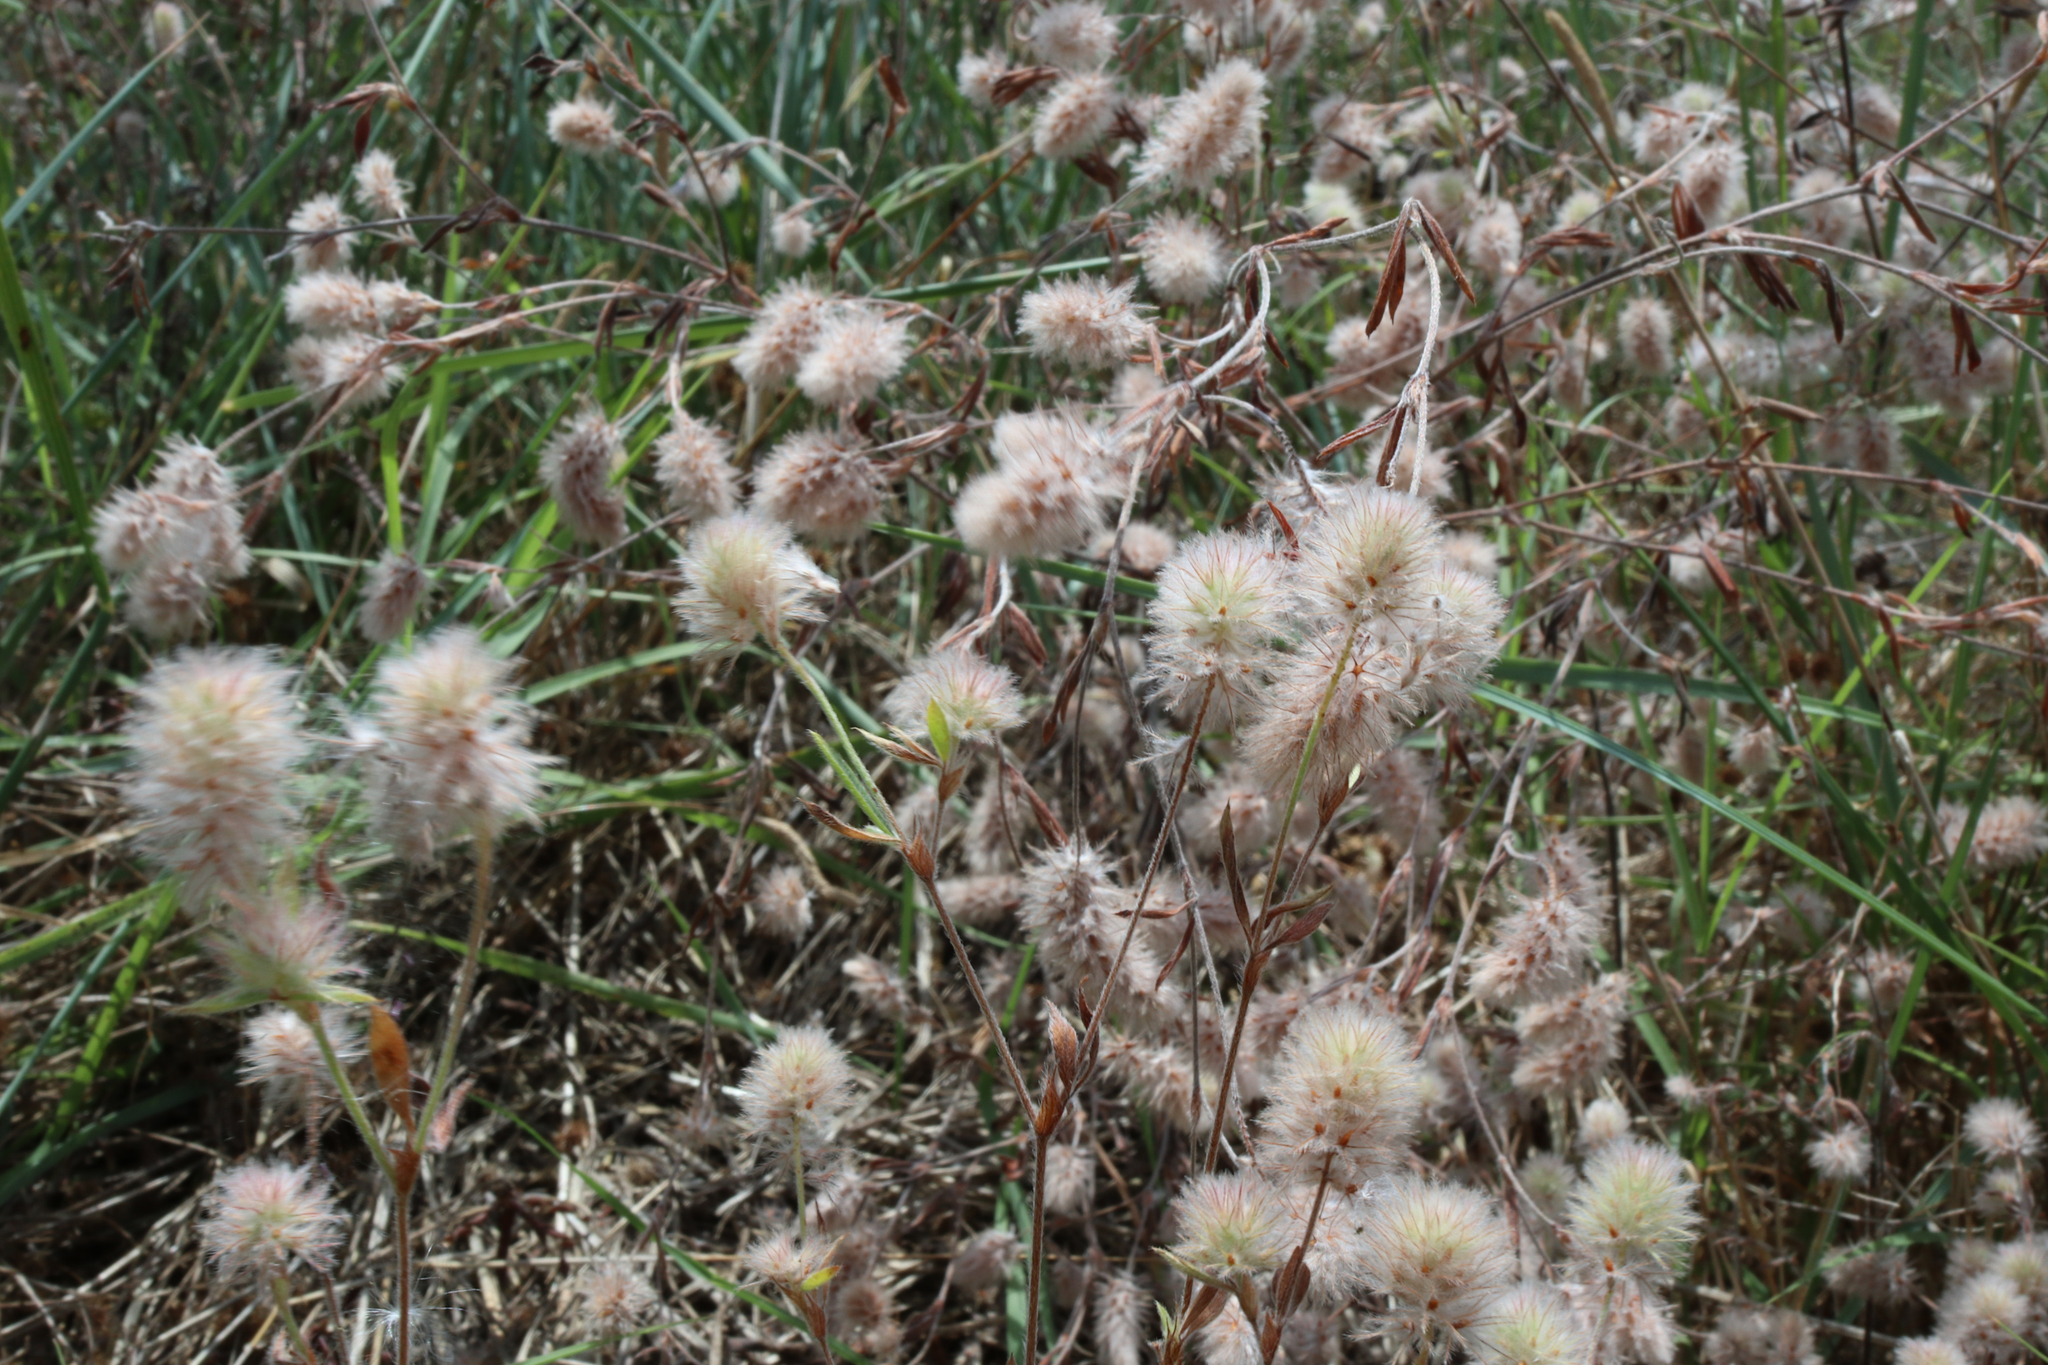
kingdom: Plantae
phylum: Tracheophyta
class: Magnoliopsida
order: Fabales
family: Fabaceae
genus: Trifolium
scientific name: Trifolium arvense
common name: Hare's-foot clover
